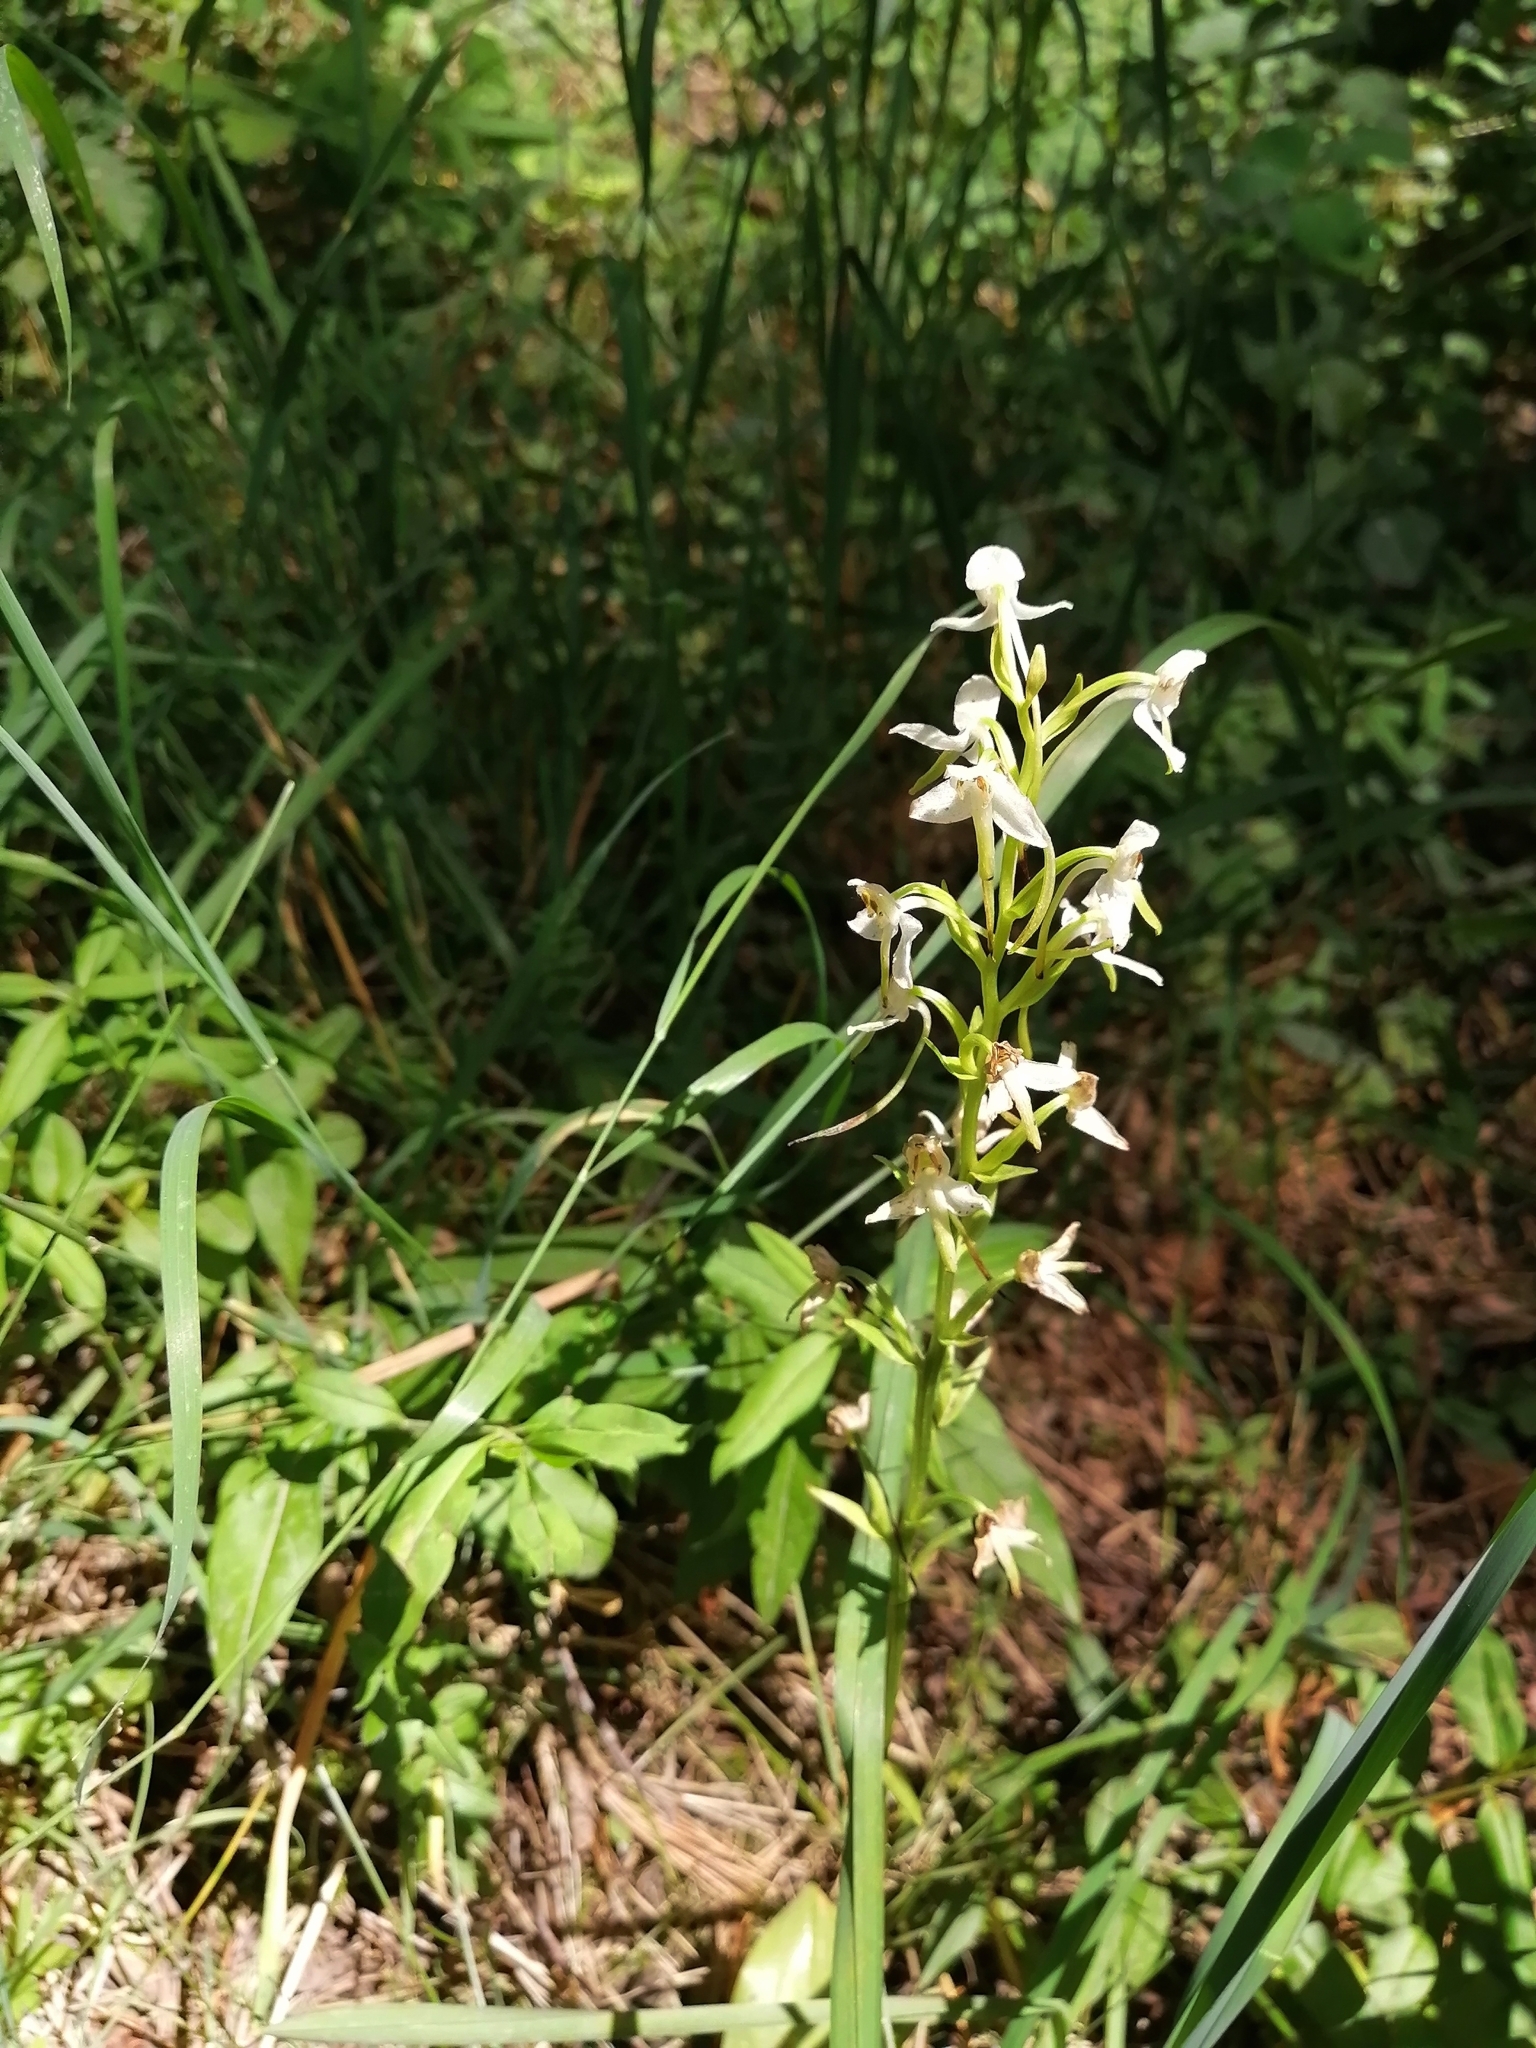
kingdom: Plantae
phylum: Tracheophyta
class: Liliopsida
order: Asparagales
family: Orchidaceae
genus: Platanthera
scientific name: Platanthera chlorantha
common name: Greater butterfly-orchid
